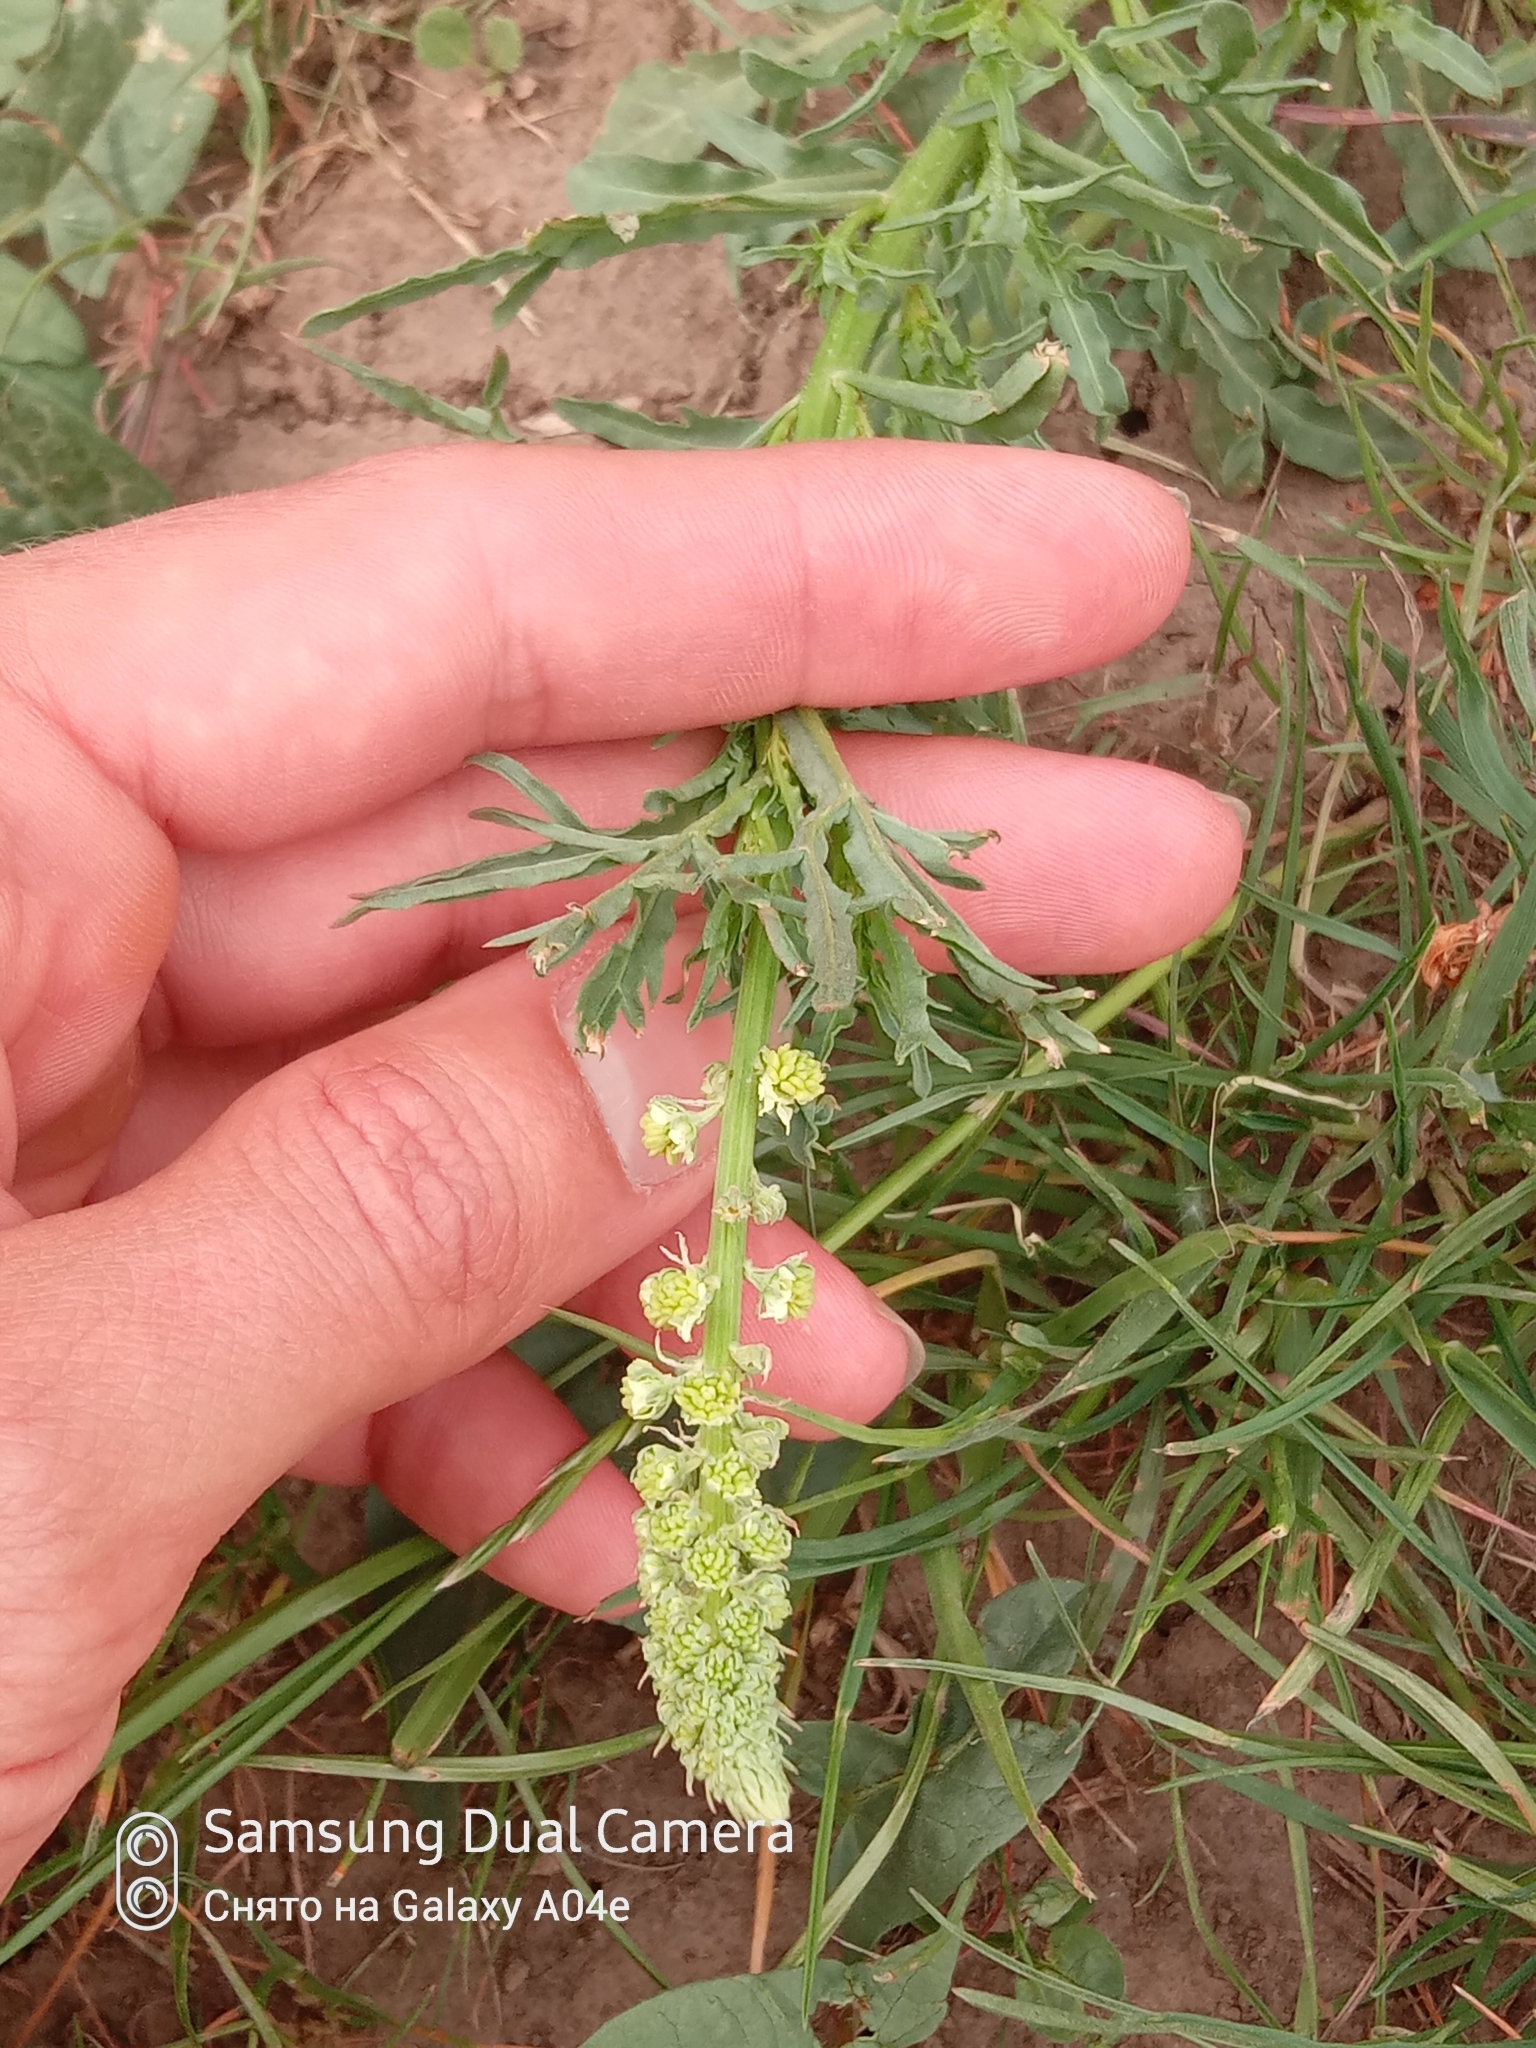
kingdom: Plantae
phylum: Tracheophyta
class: Magnoliopsida
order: Brassicales
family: Resedaceae
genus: Reseda
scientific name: Reseda lutea
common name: Wild mignonette
